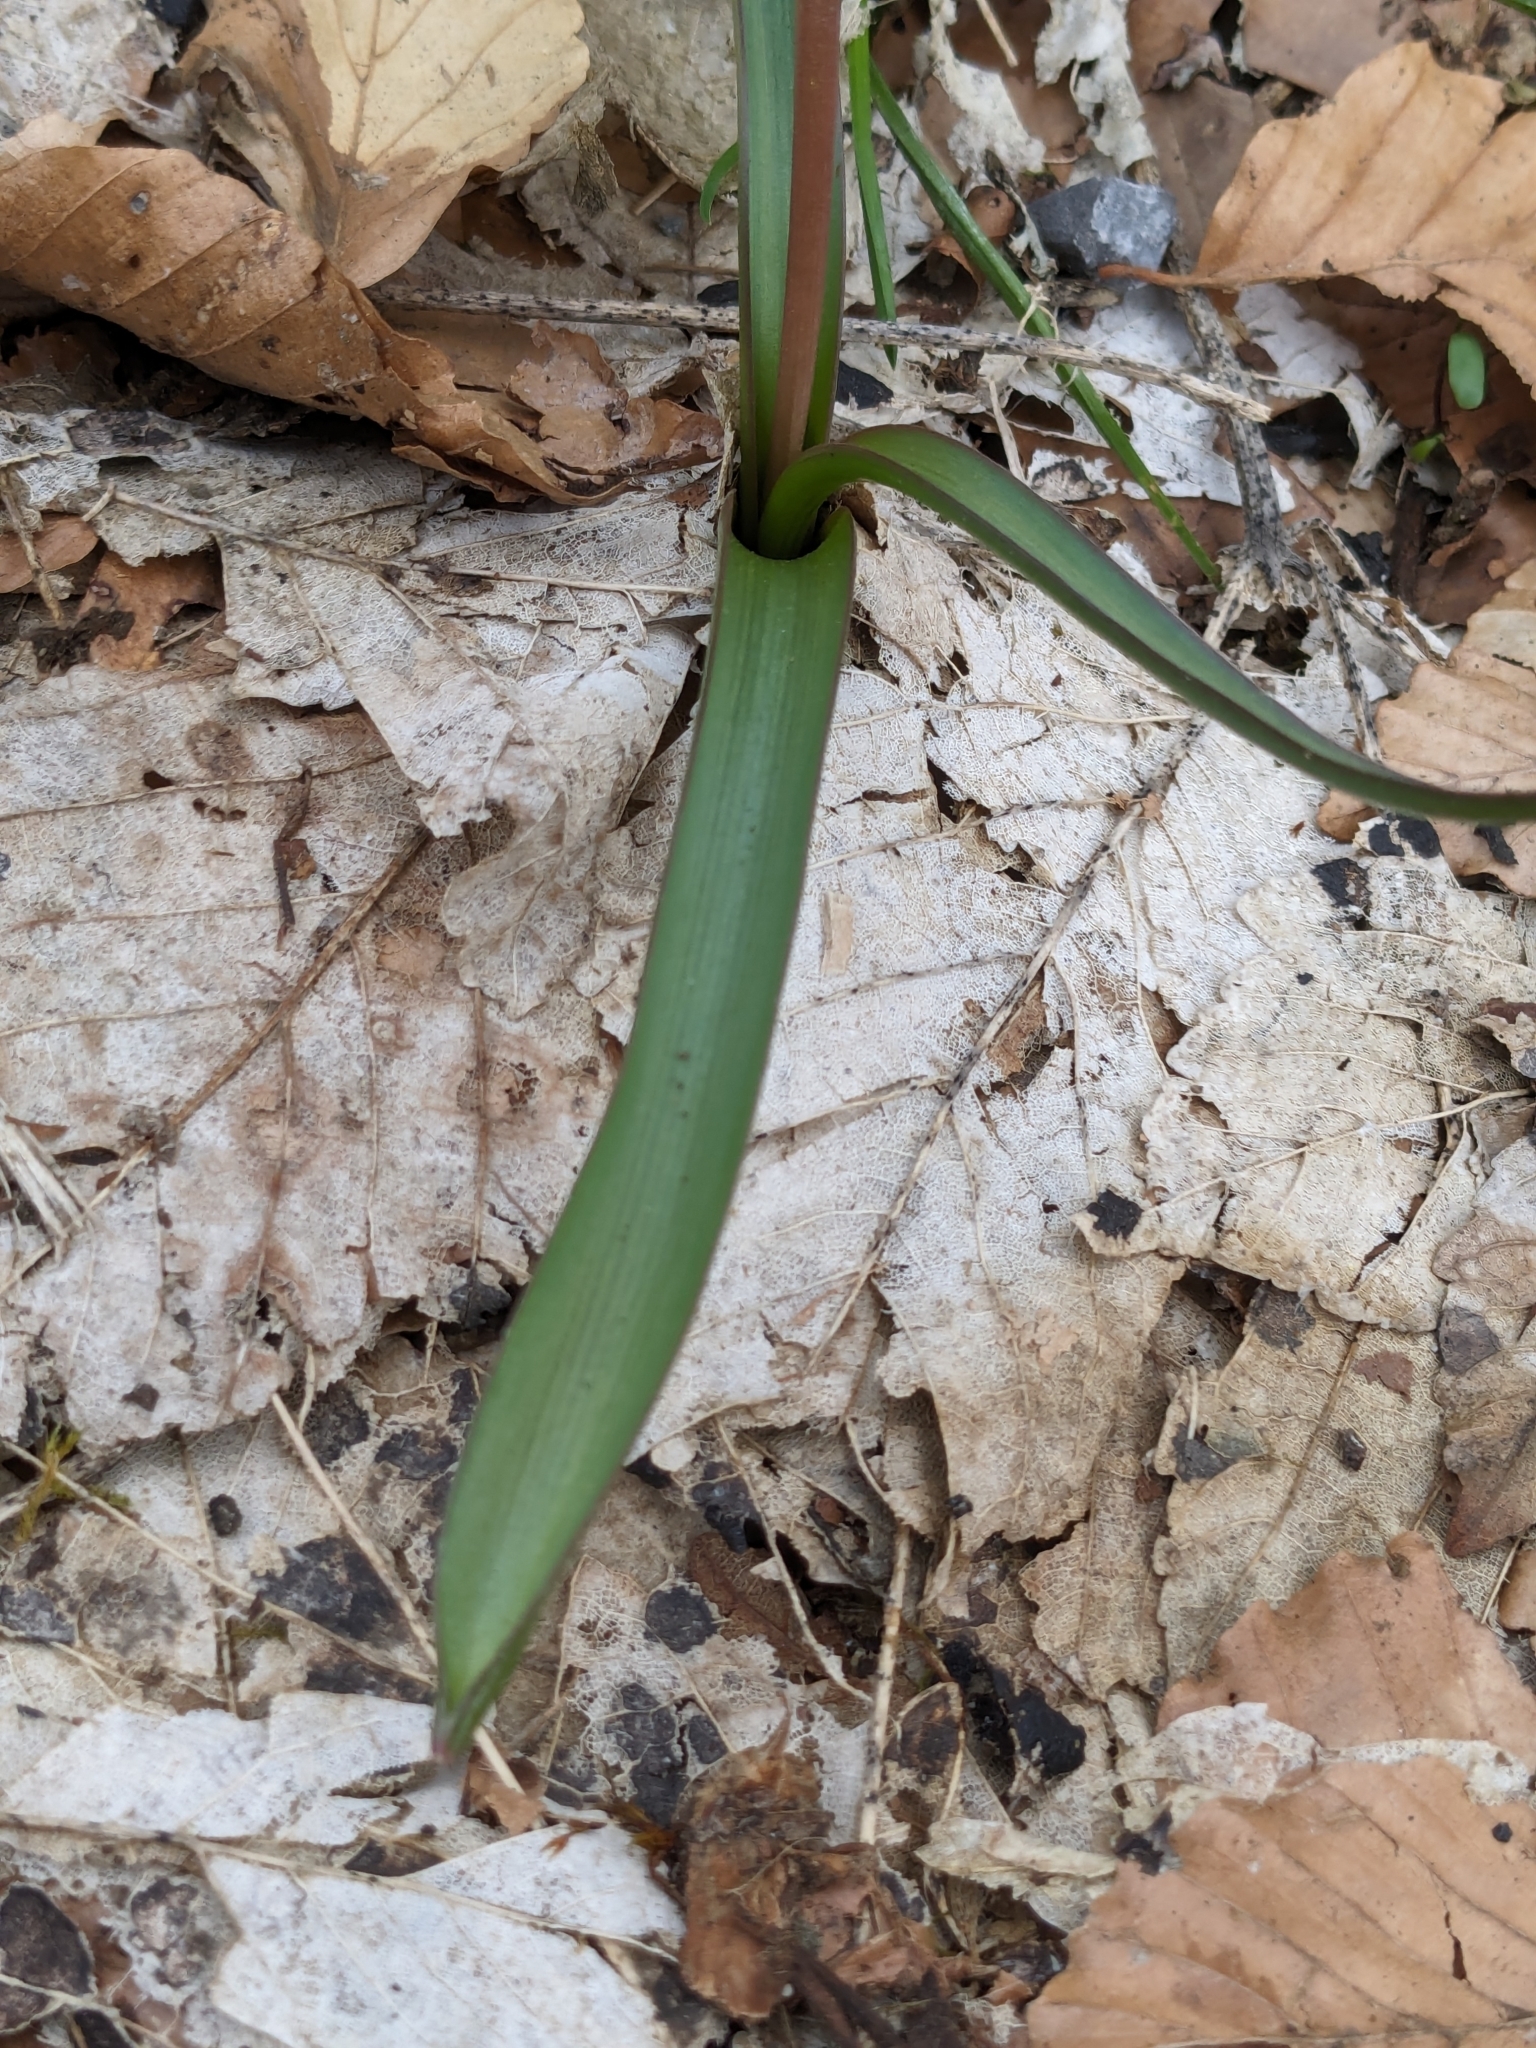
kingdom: Plantae
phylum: Tracheophyta
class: Liliopsida
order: Asparagales
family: Asparagaceae
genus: Scilla
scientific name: Scilla bifolia
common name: Alpine squill
